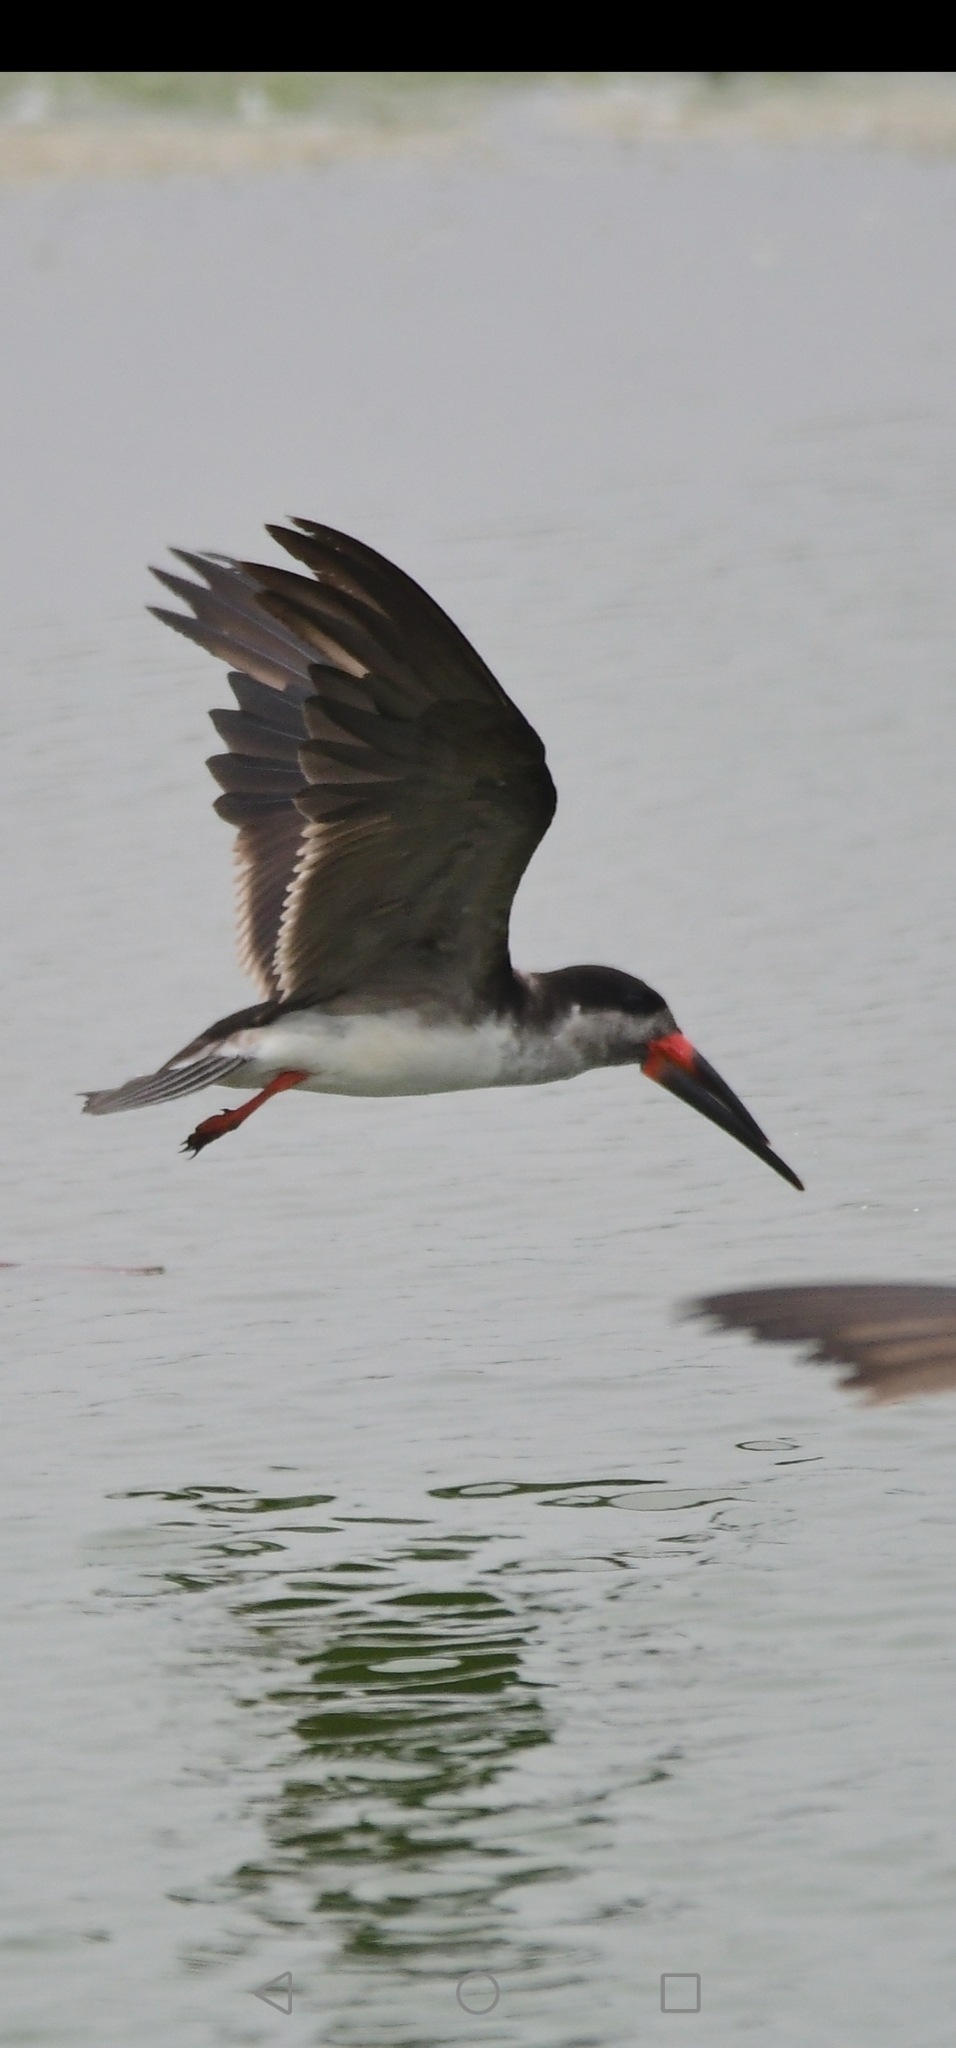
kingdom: Animalia
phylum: Chordata
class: Aves
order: Charadriiformes
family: Laridae
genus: Rynchops
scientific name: Rynchops niger
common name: Black skimmer
